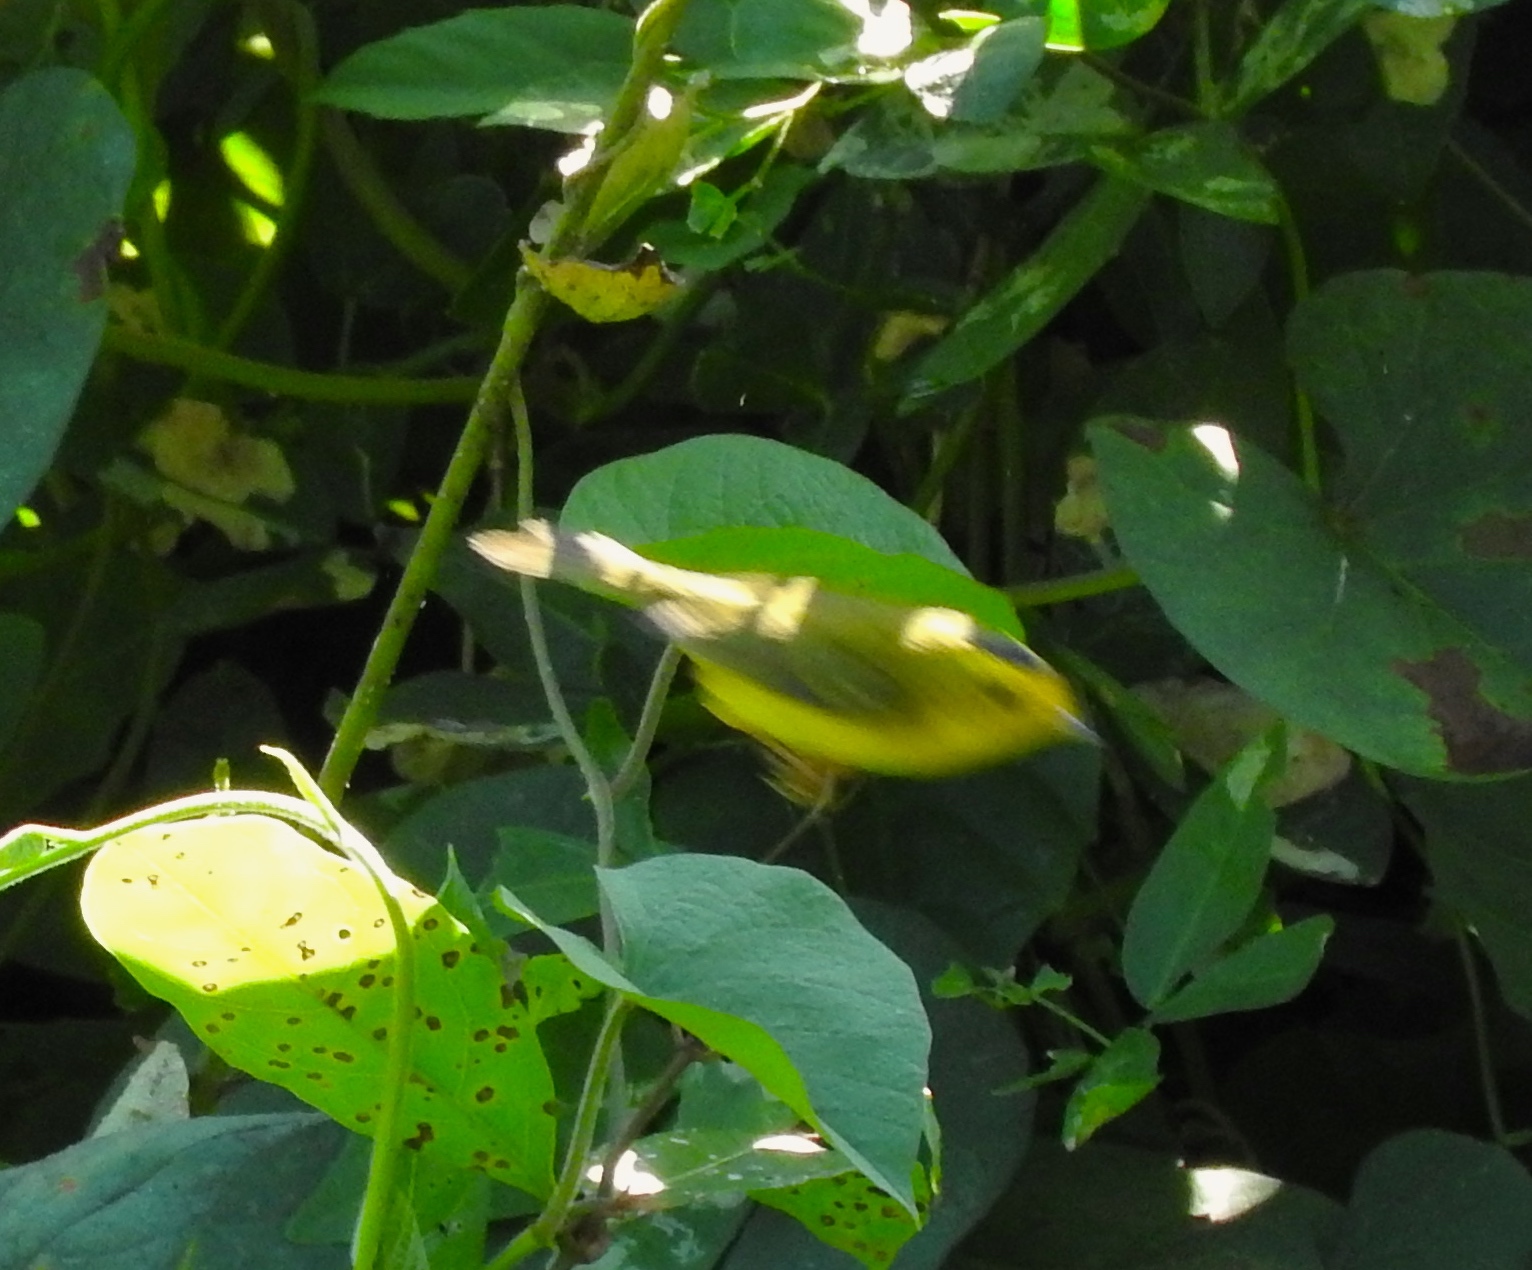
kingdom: Animalia
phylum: Chordata
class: Aves
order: Passeriformes
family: Parulidae
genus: Cardellina
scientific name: Cardellina pusilla
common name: Wilson's warbler
